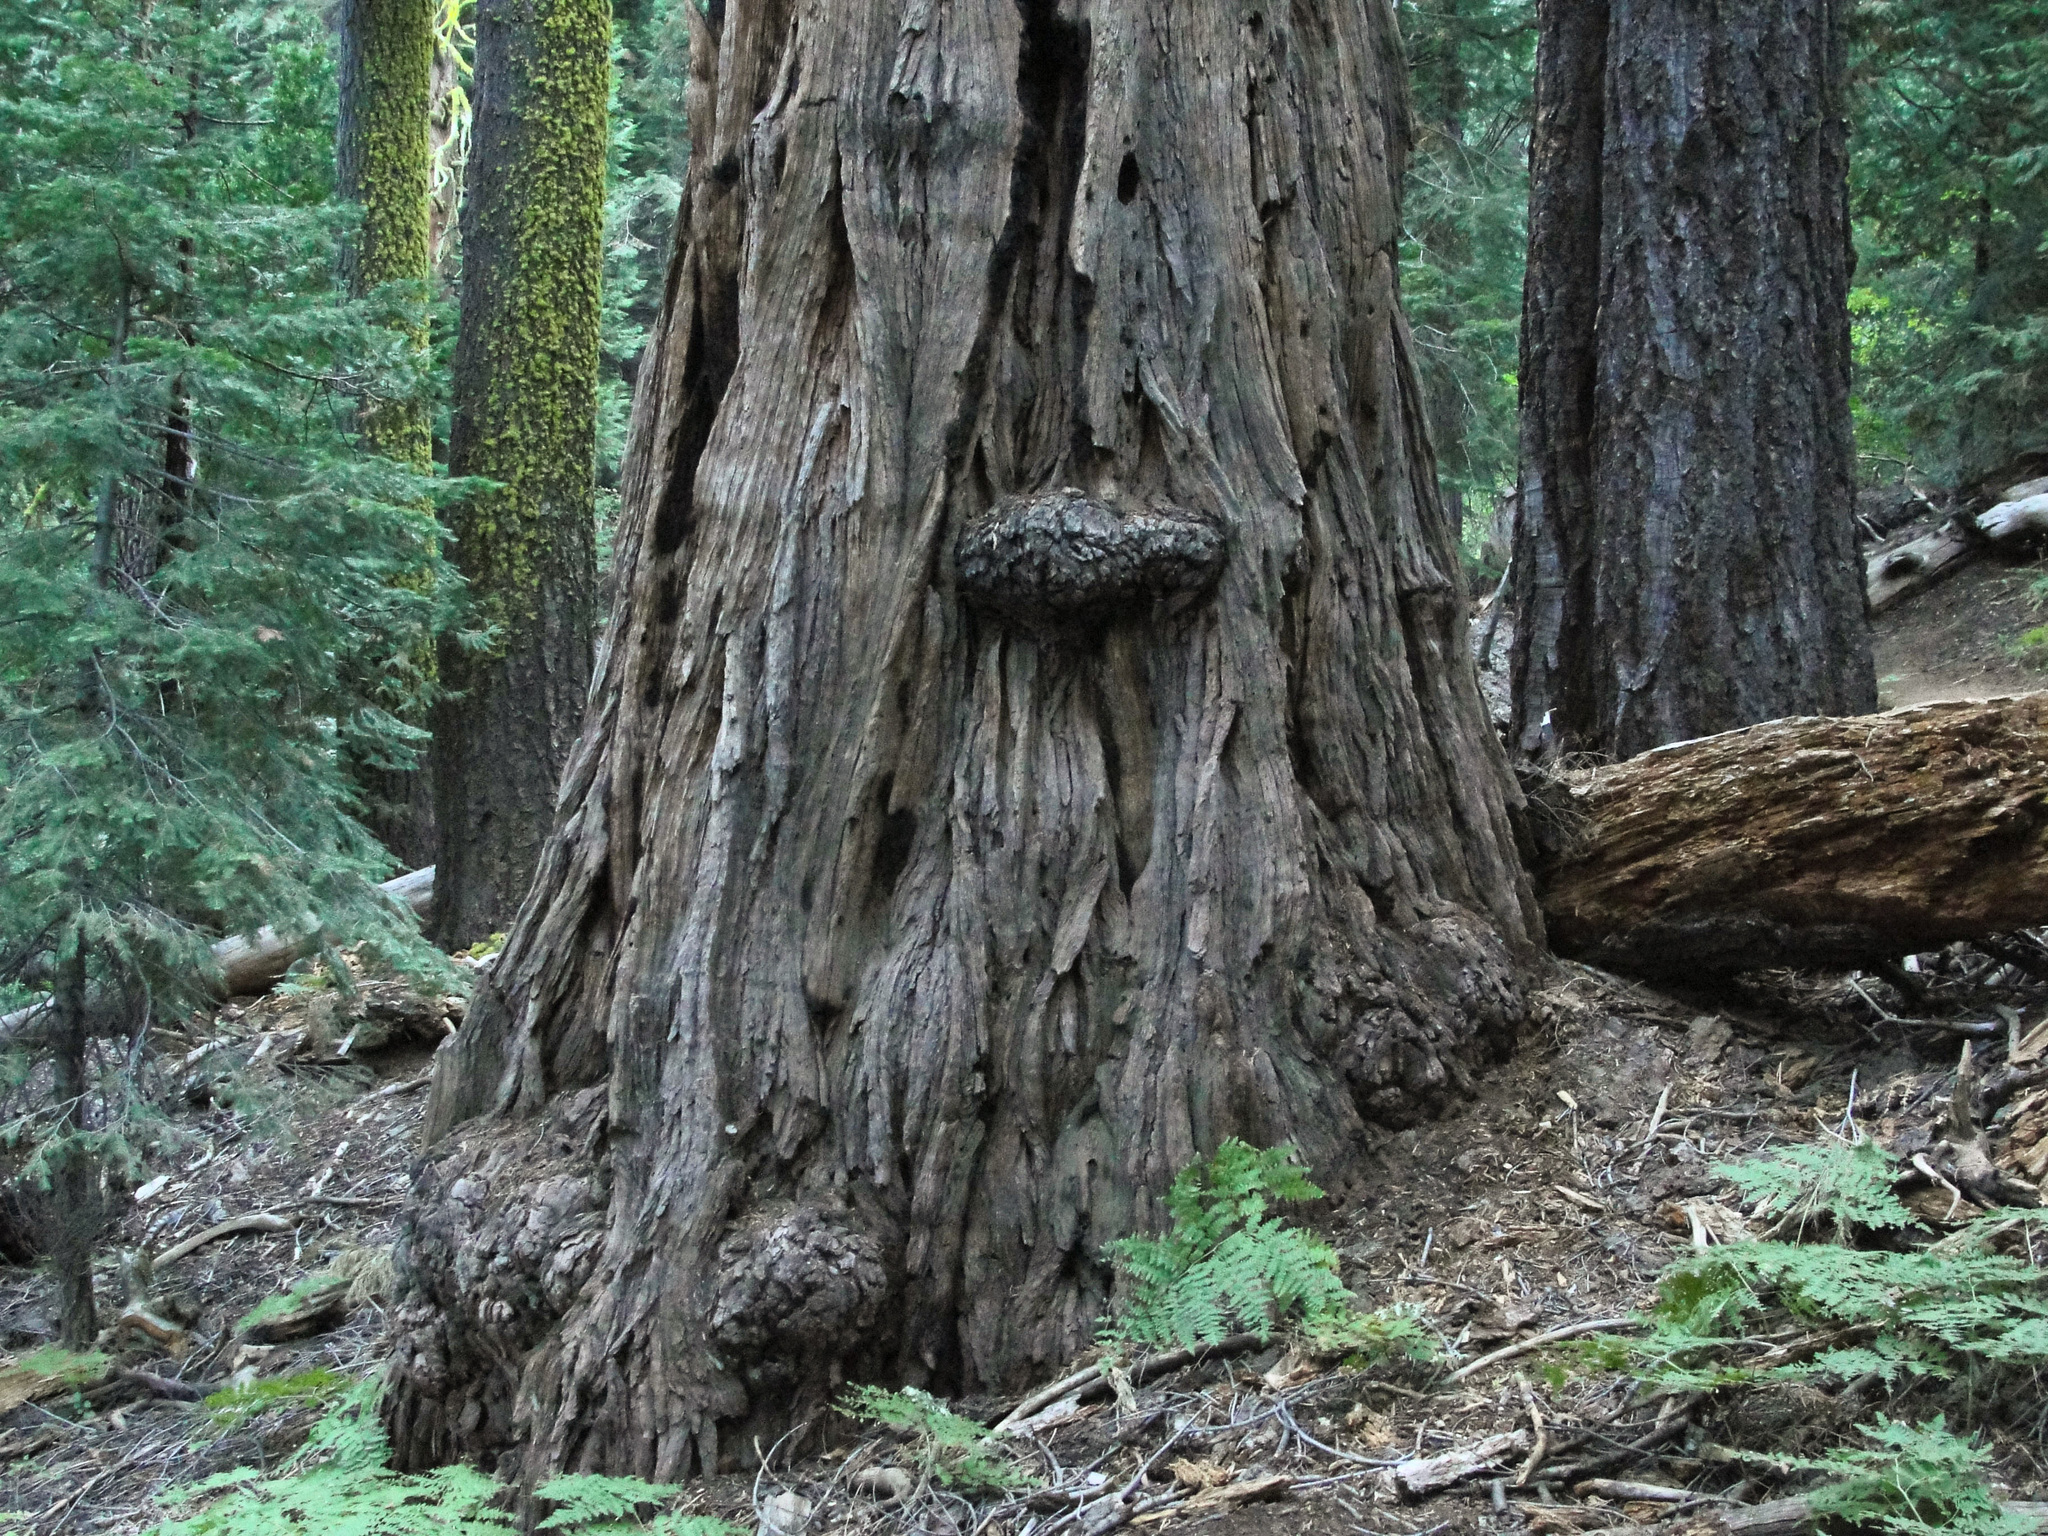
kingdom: Plantae
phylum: Tracheophyta
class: Pinopsida
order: Pinales
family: Cupressaceae
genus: Calocedrus
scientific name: Calocedrus decurrens
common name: Californian incense-cedar
